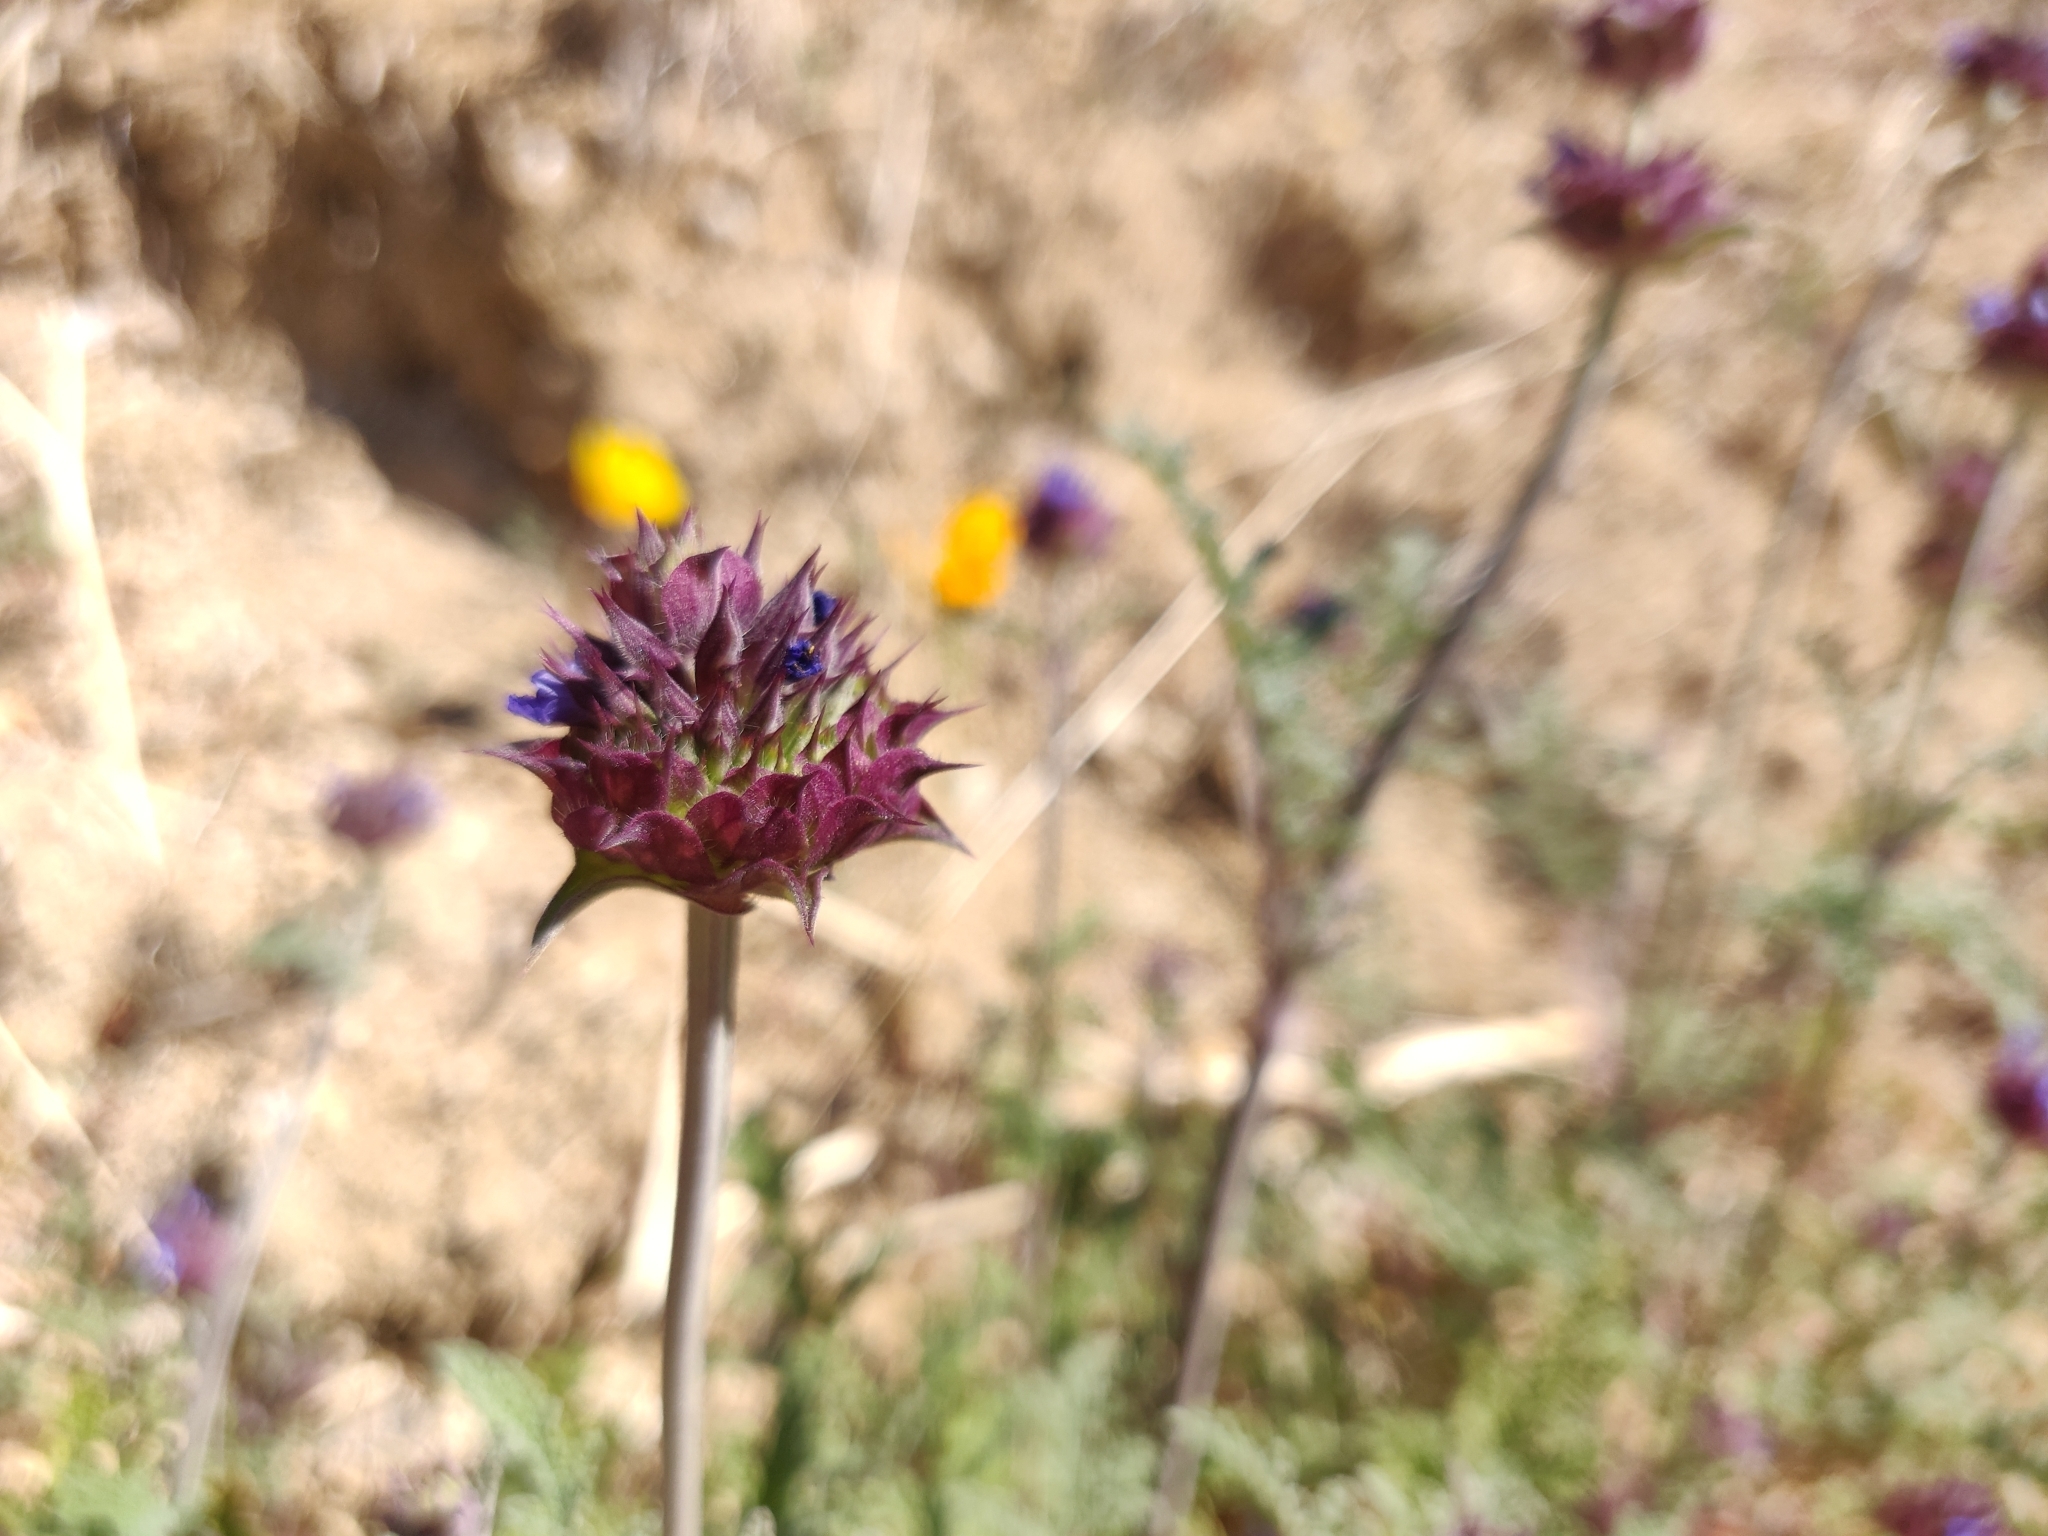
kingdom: Plantae
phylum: Tracheophyta
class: Magnoliopsida
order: Lamiales
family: Lamiaceae
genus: Salvia
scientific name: Salvia columbariae
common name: Chia
